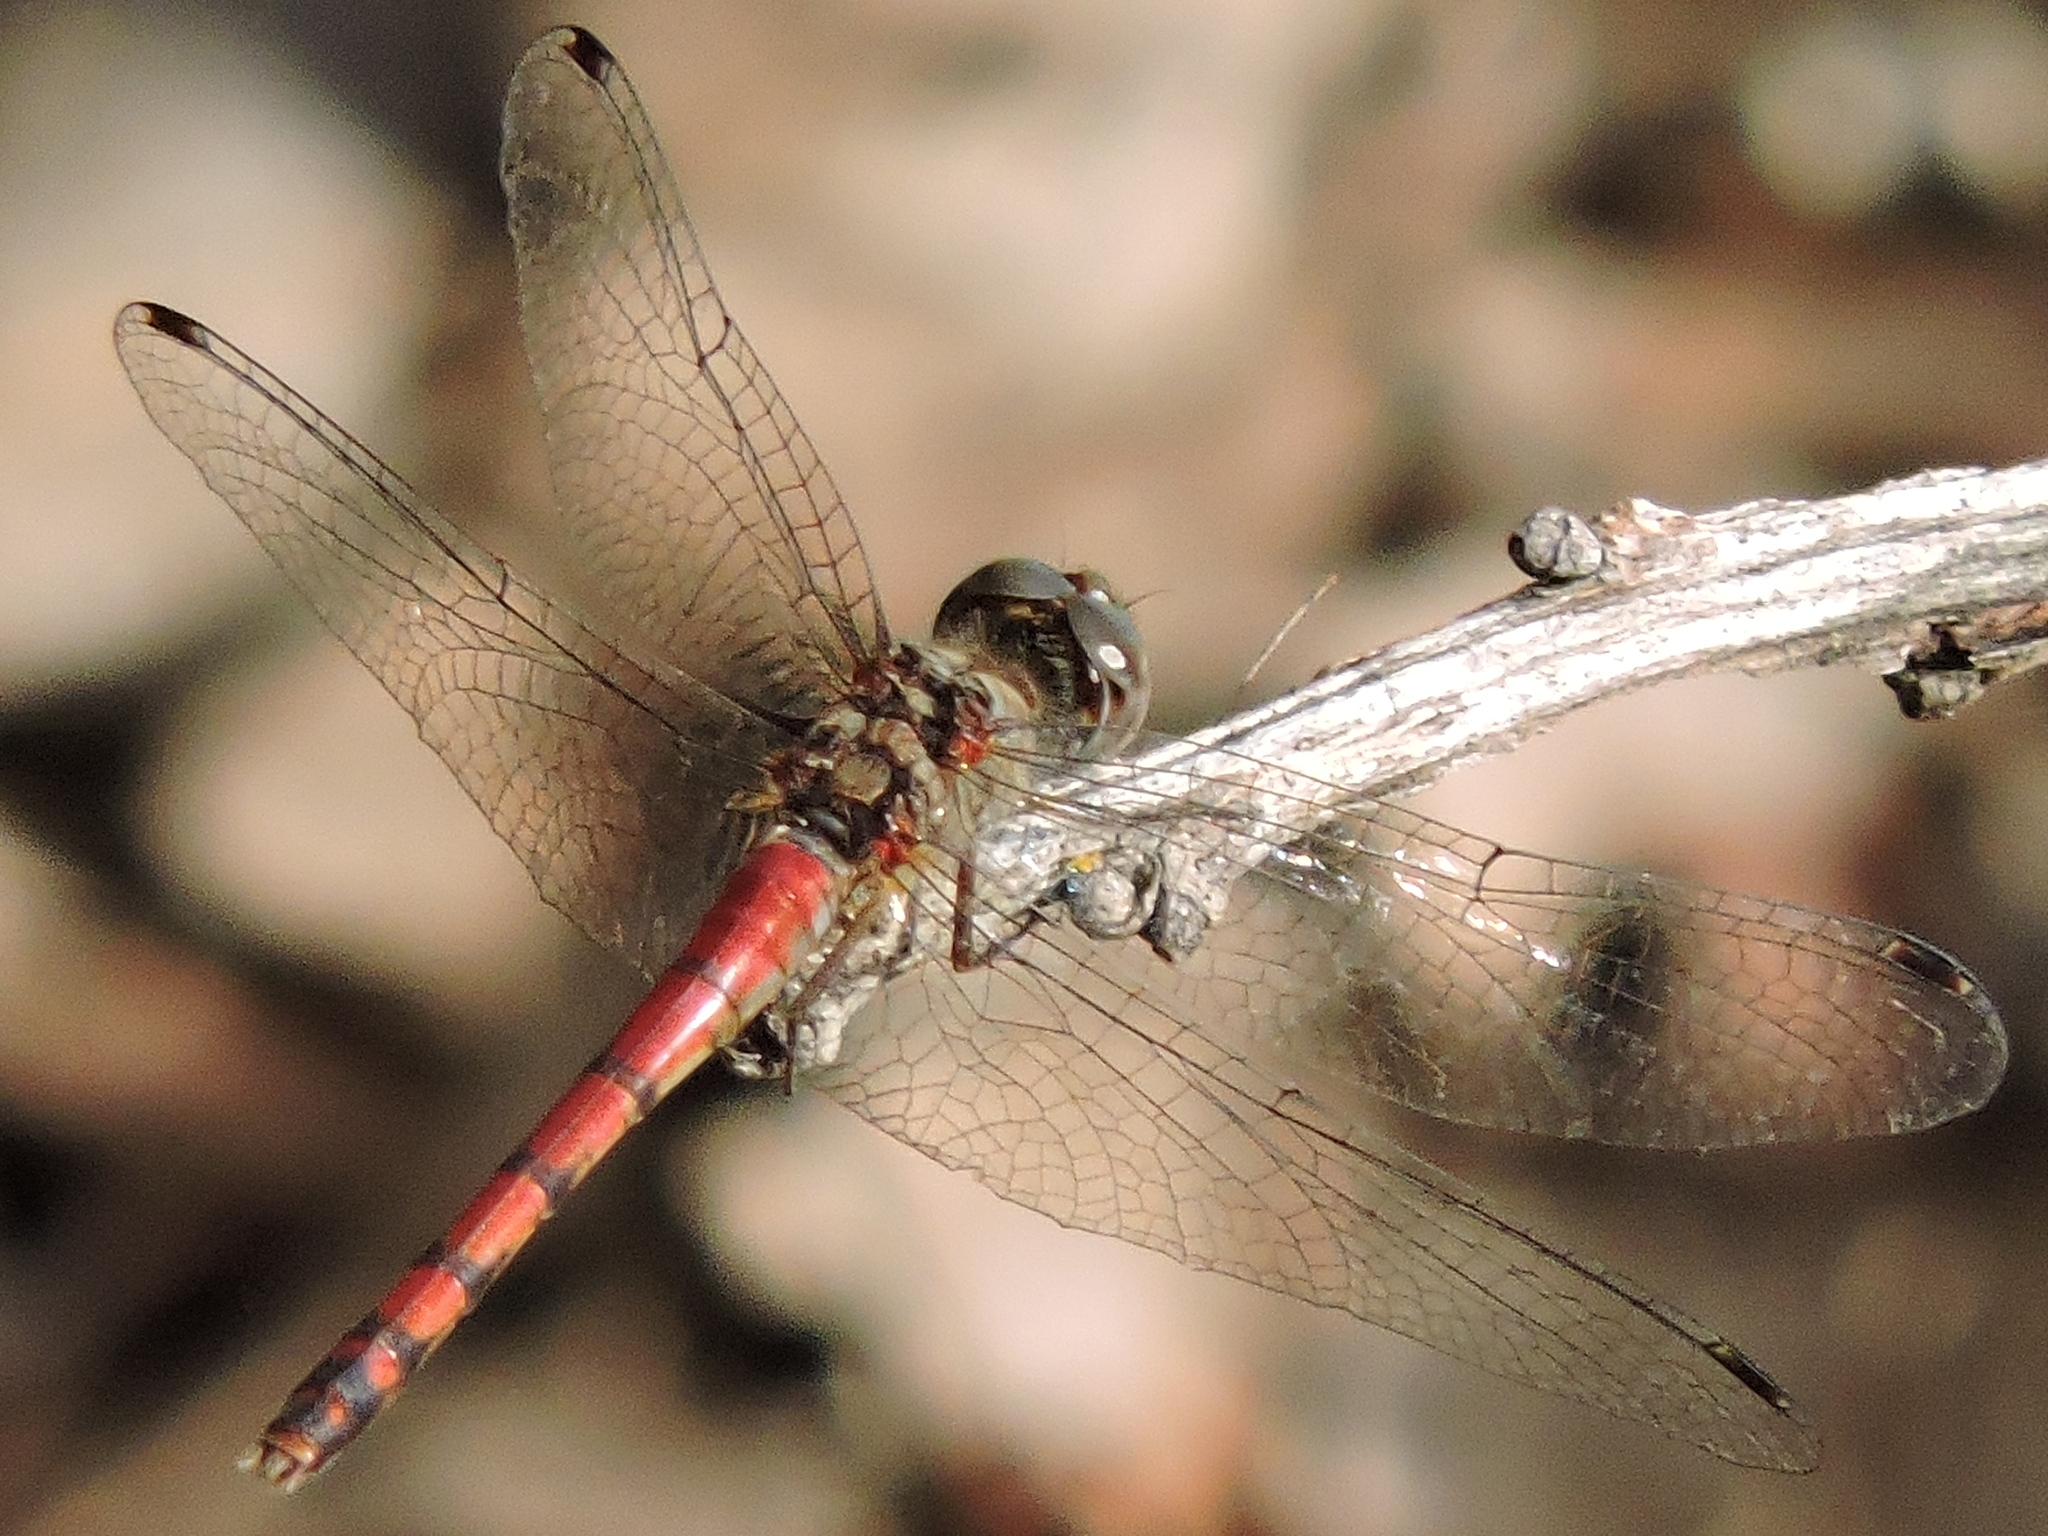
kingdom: Animalia
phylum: Arthropoda
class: Insecta
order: Odonata
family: Libellulidae
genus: Sympetrum
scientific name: Sympetrum ambiguum
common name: Blue-faced meadowhawk
